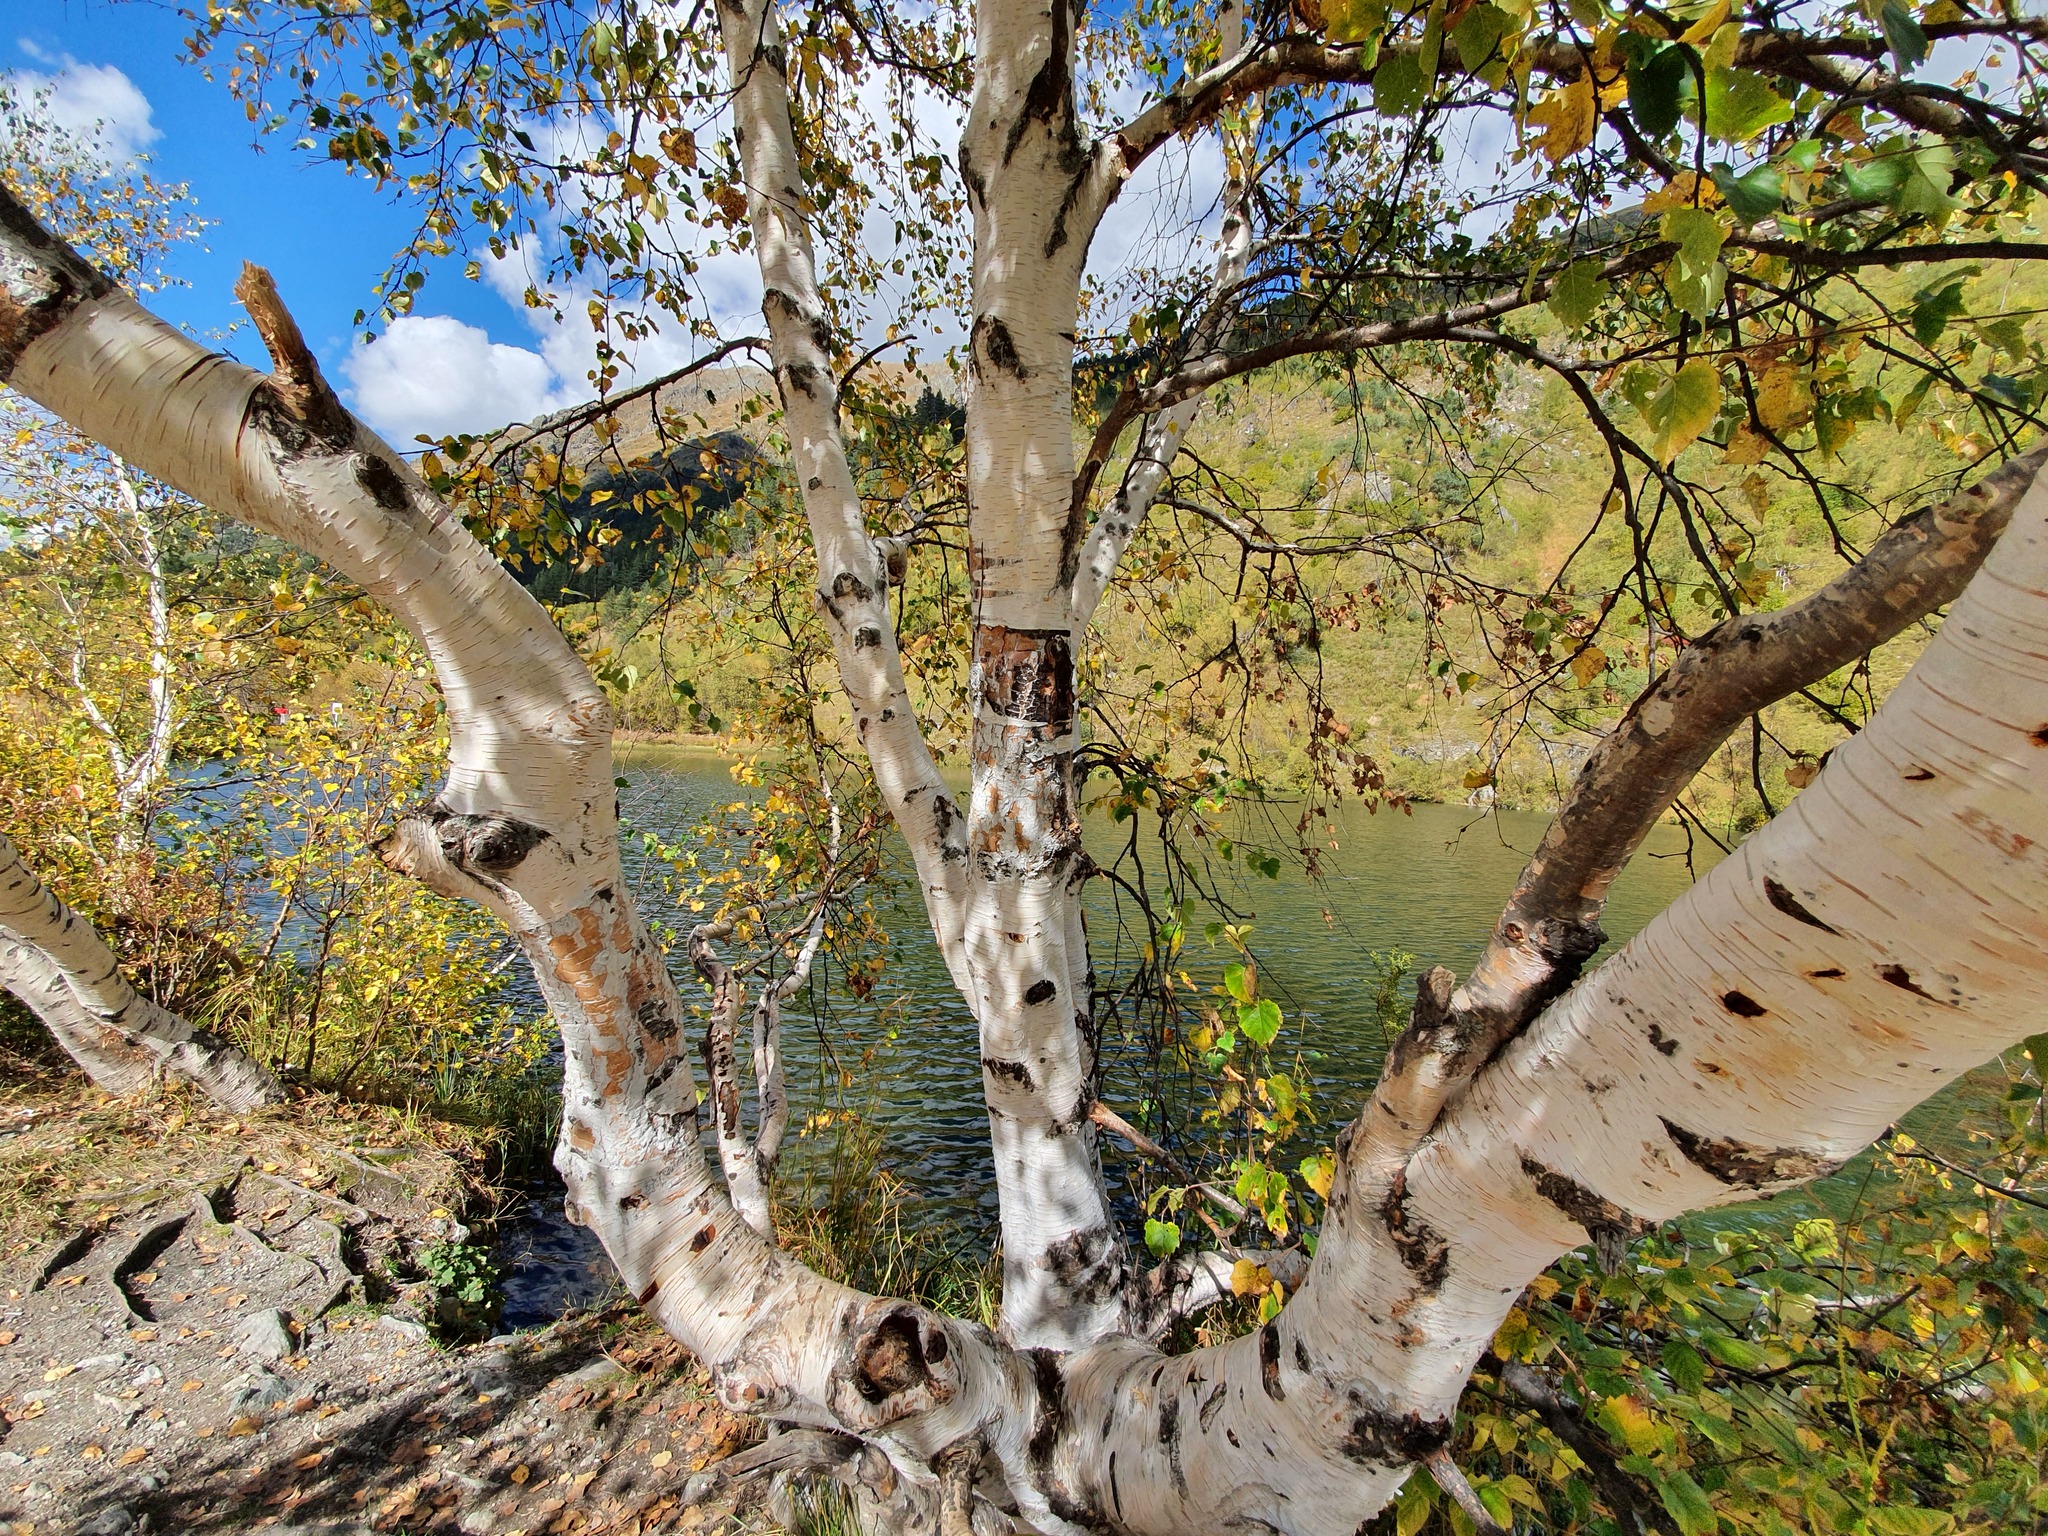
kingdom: Plantae
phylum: Tracheophyta
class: Magnoliopsida
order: Fagales
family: Betulaceae
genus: Betula
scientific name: Betula pendula
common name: Silver birch
